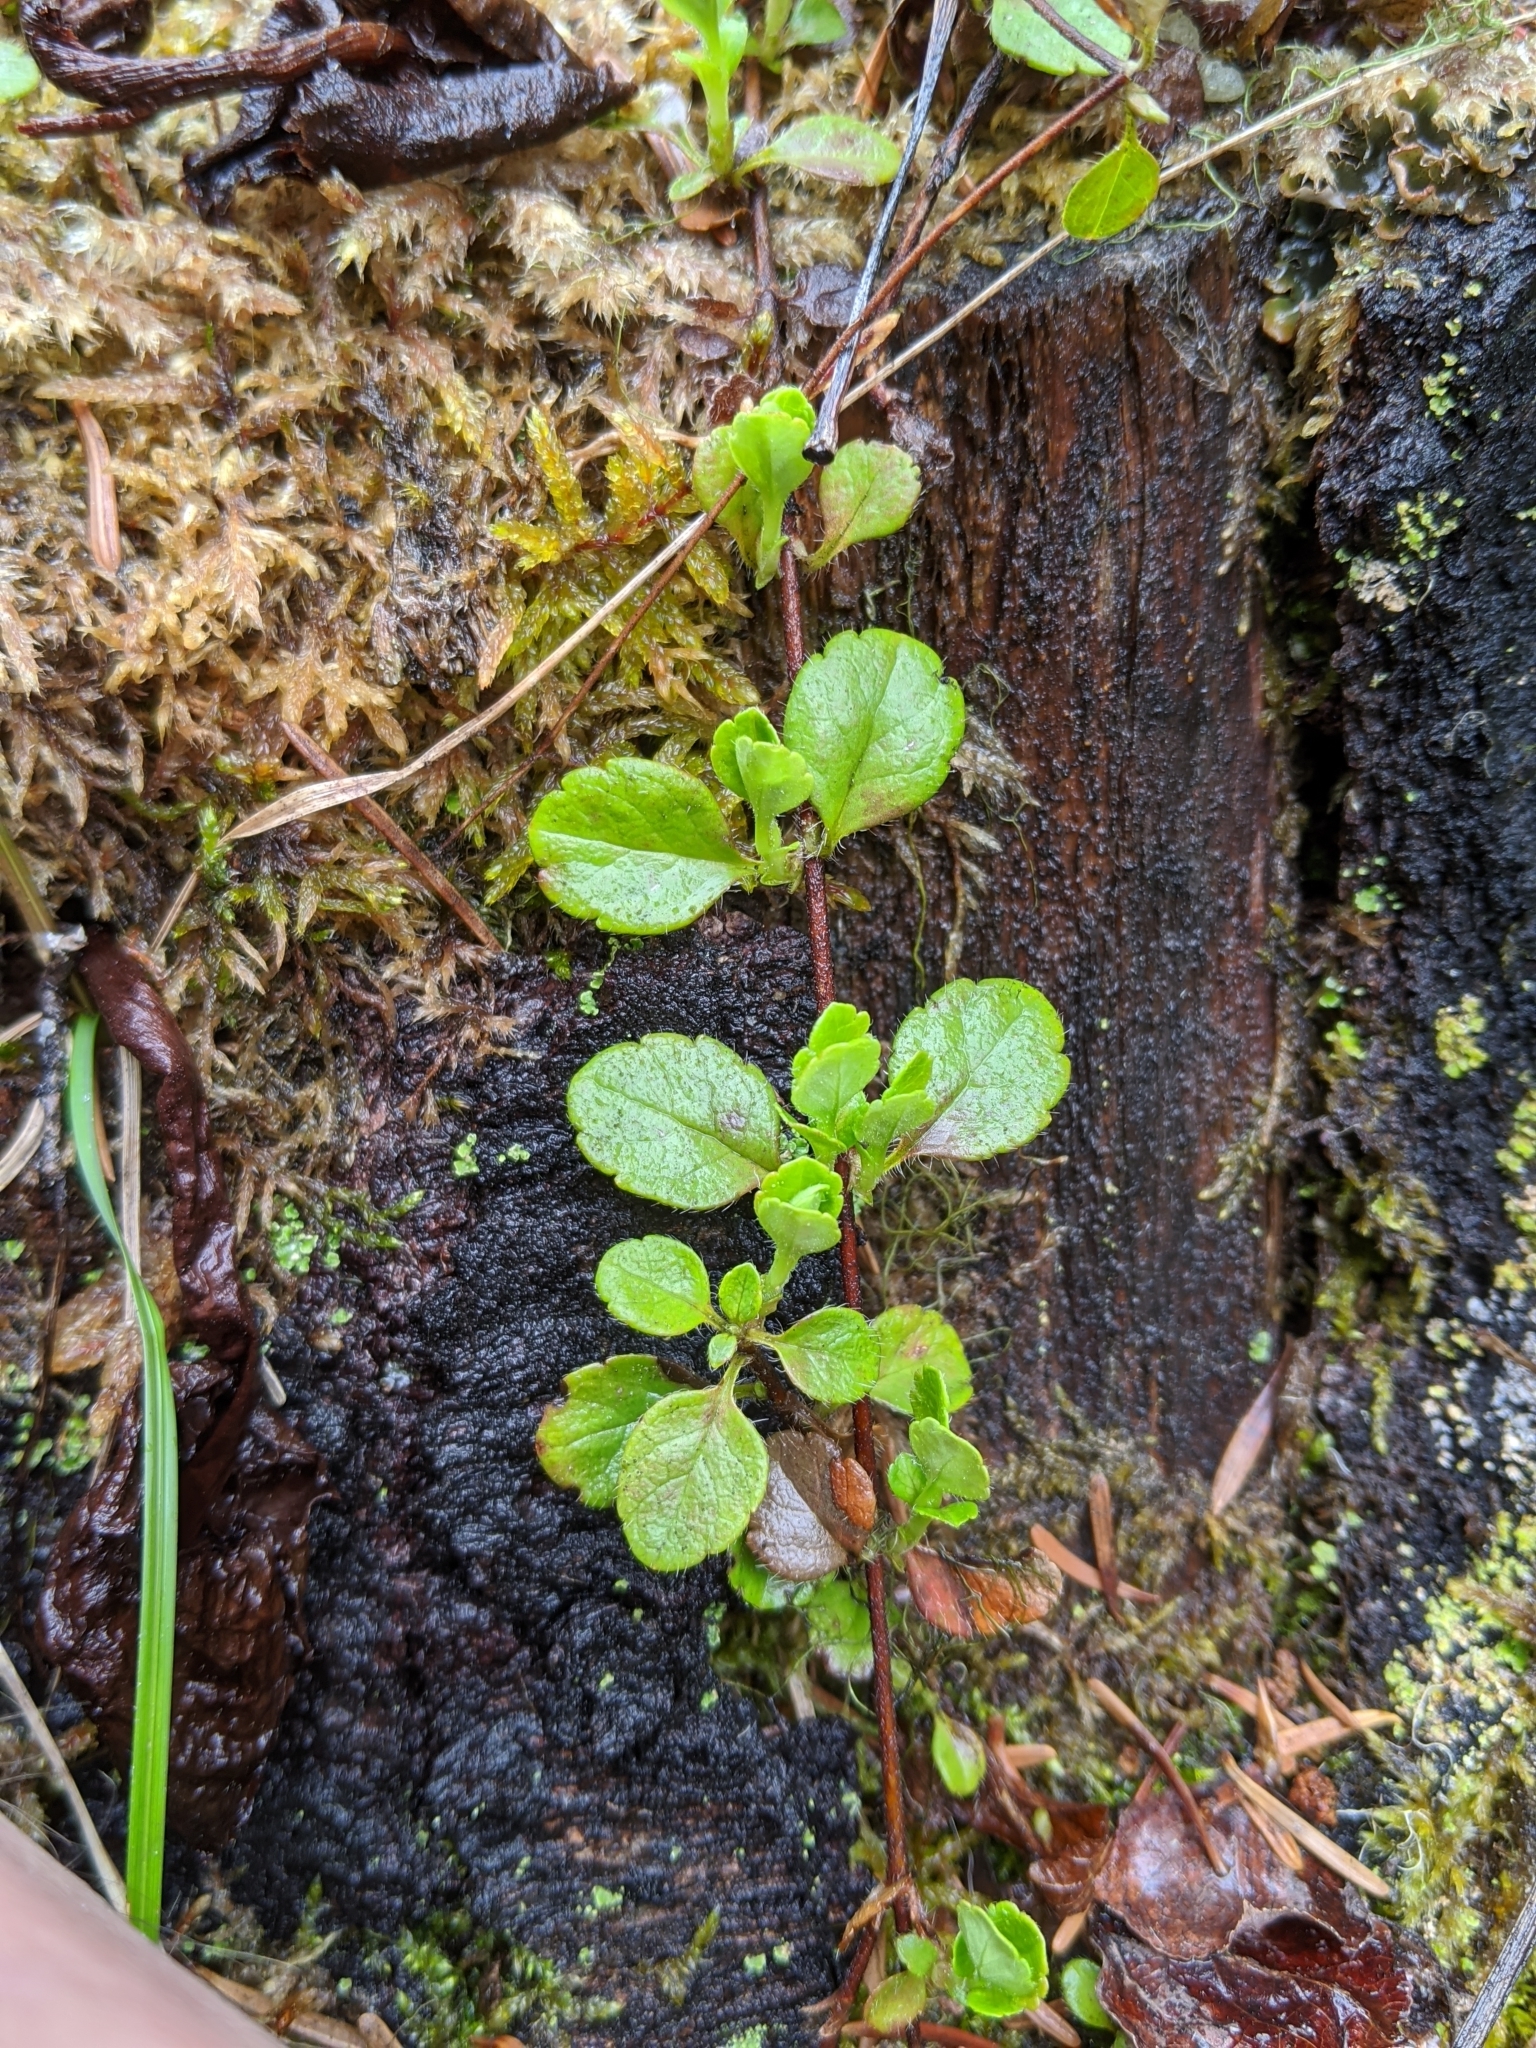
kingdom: Plantae
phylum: Tracheophyta
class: Magnoliopsida
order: Dipsacales
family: Caprifoliaceae
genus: Linnaea
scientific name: Linnaea borealis
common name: Twinflower
